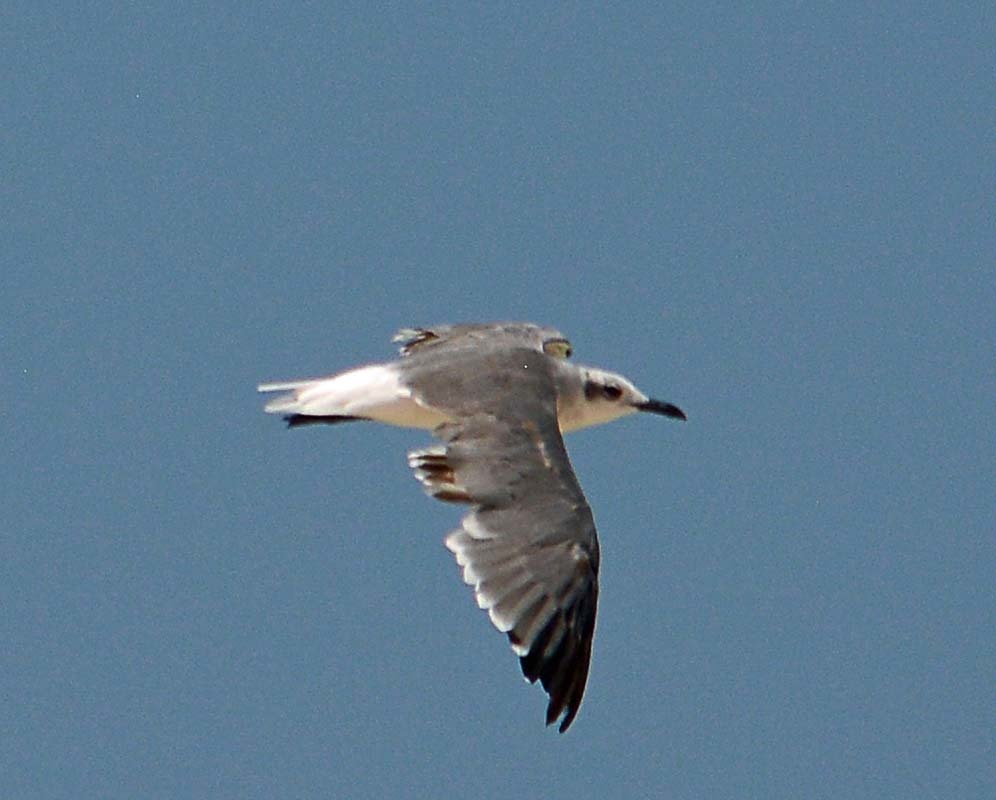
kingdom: Animalia
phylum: Chordata
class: Aves
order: Charadriiformes
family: Laridae
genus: Leucophaeus
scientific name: Leucophaeus atricilla
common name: Laughing gull
